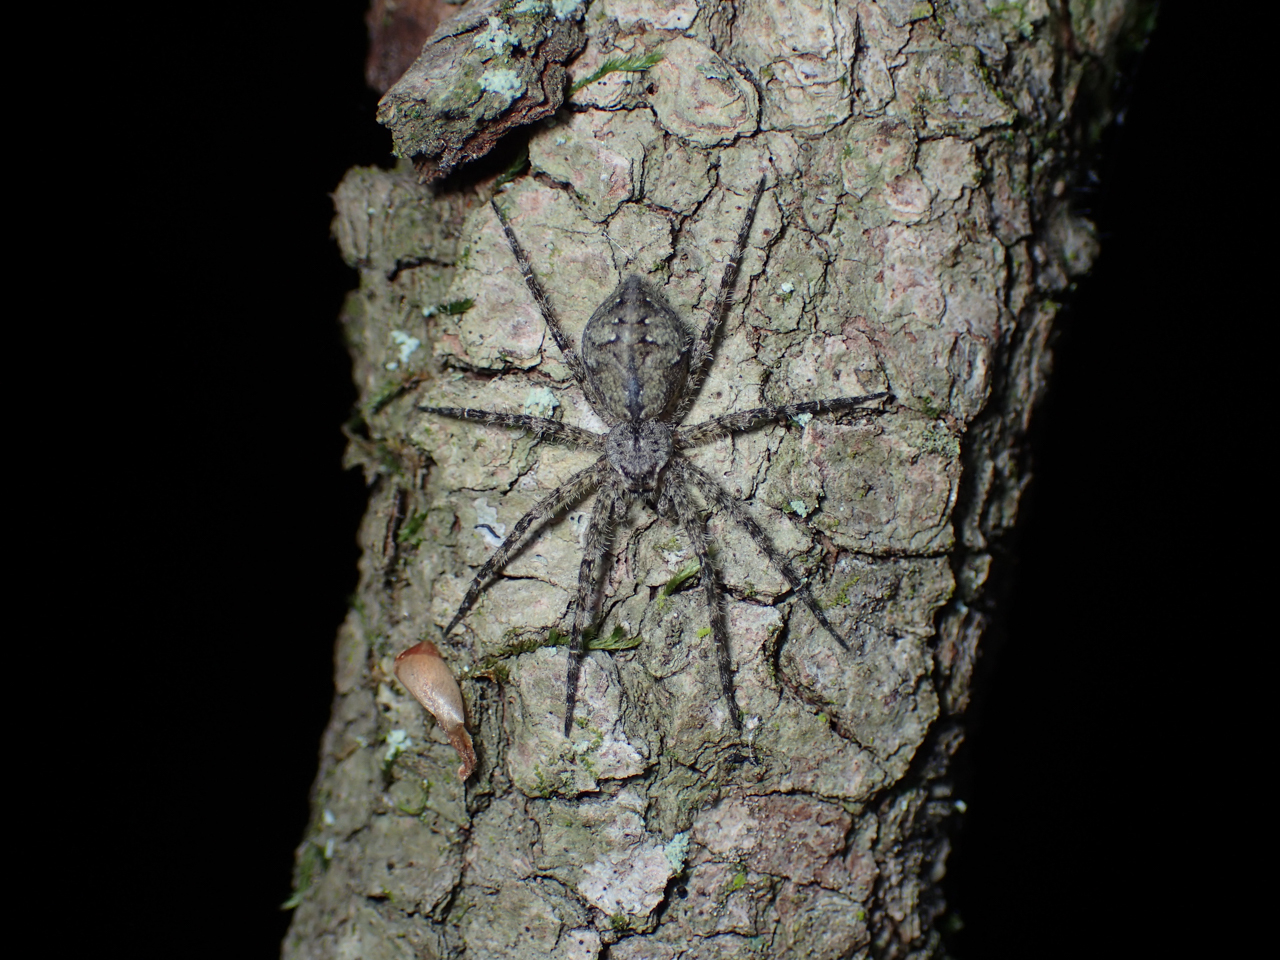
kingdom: Animalia
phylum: Arthropoda
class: Arachnida
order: Araneae
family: Pisauridae
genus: Dolomedes
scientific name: Dolomedes albineus
